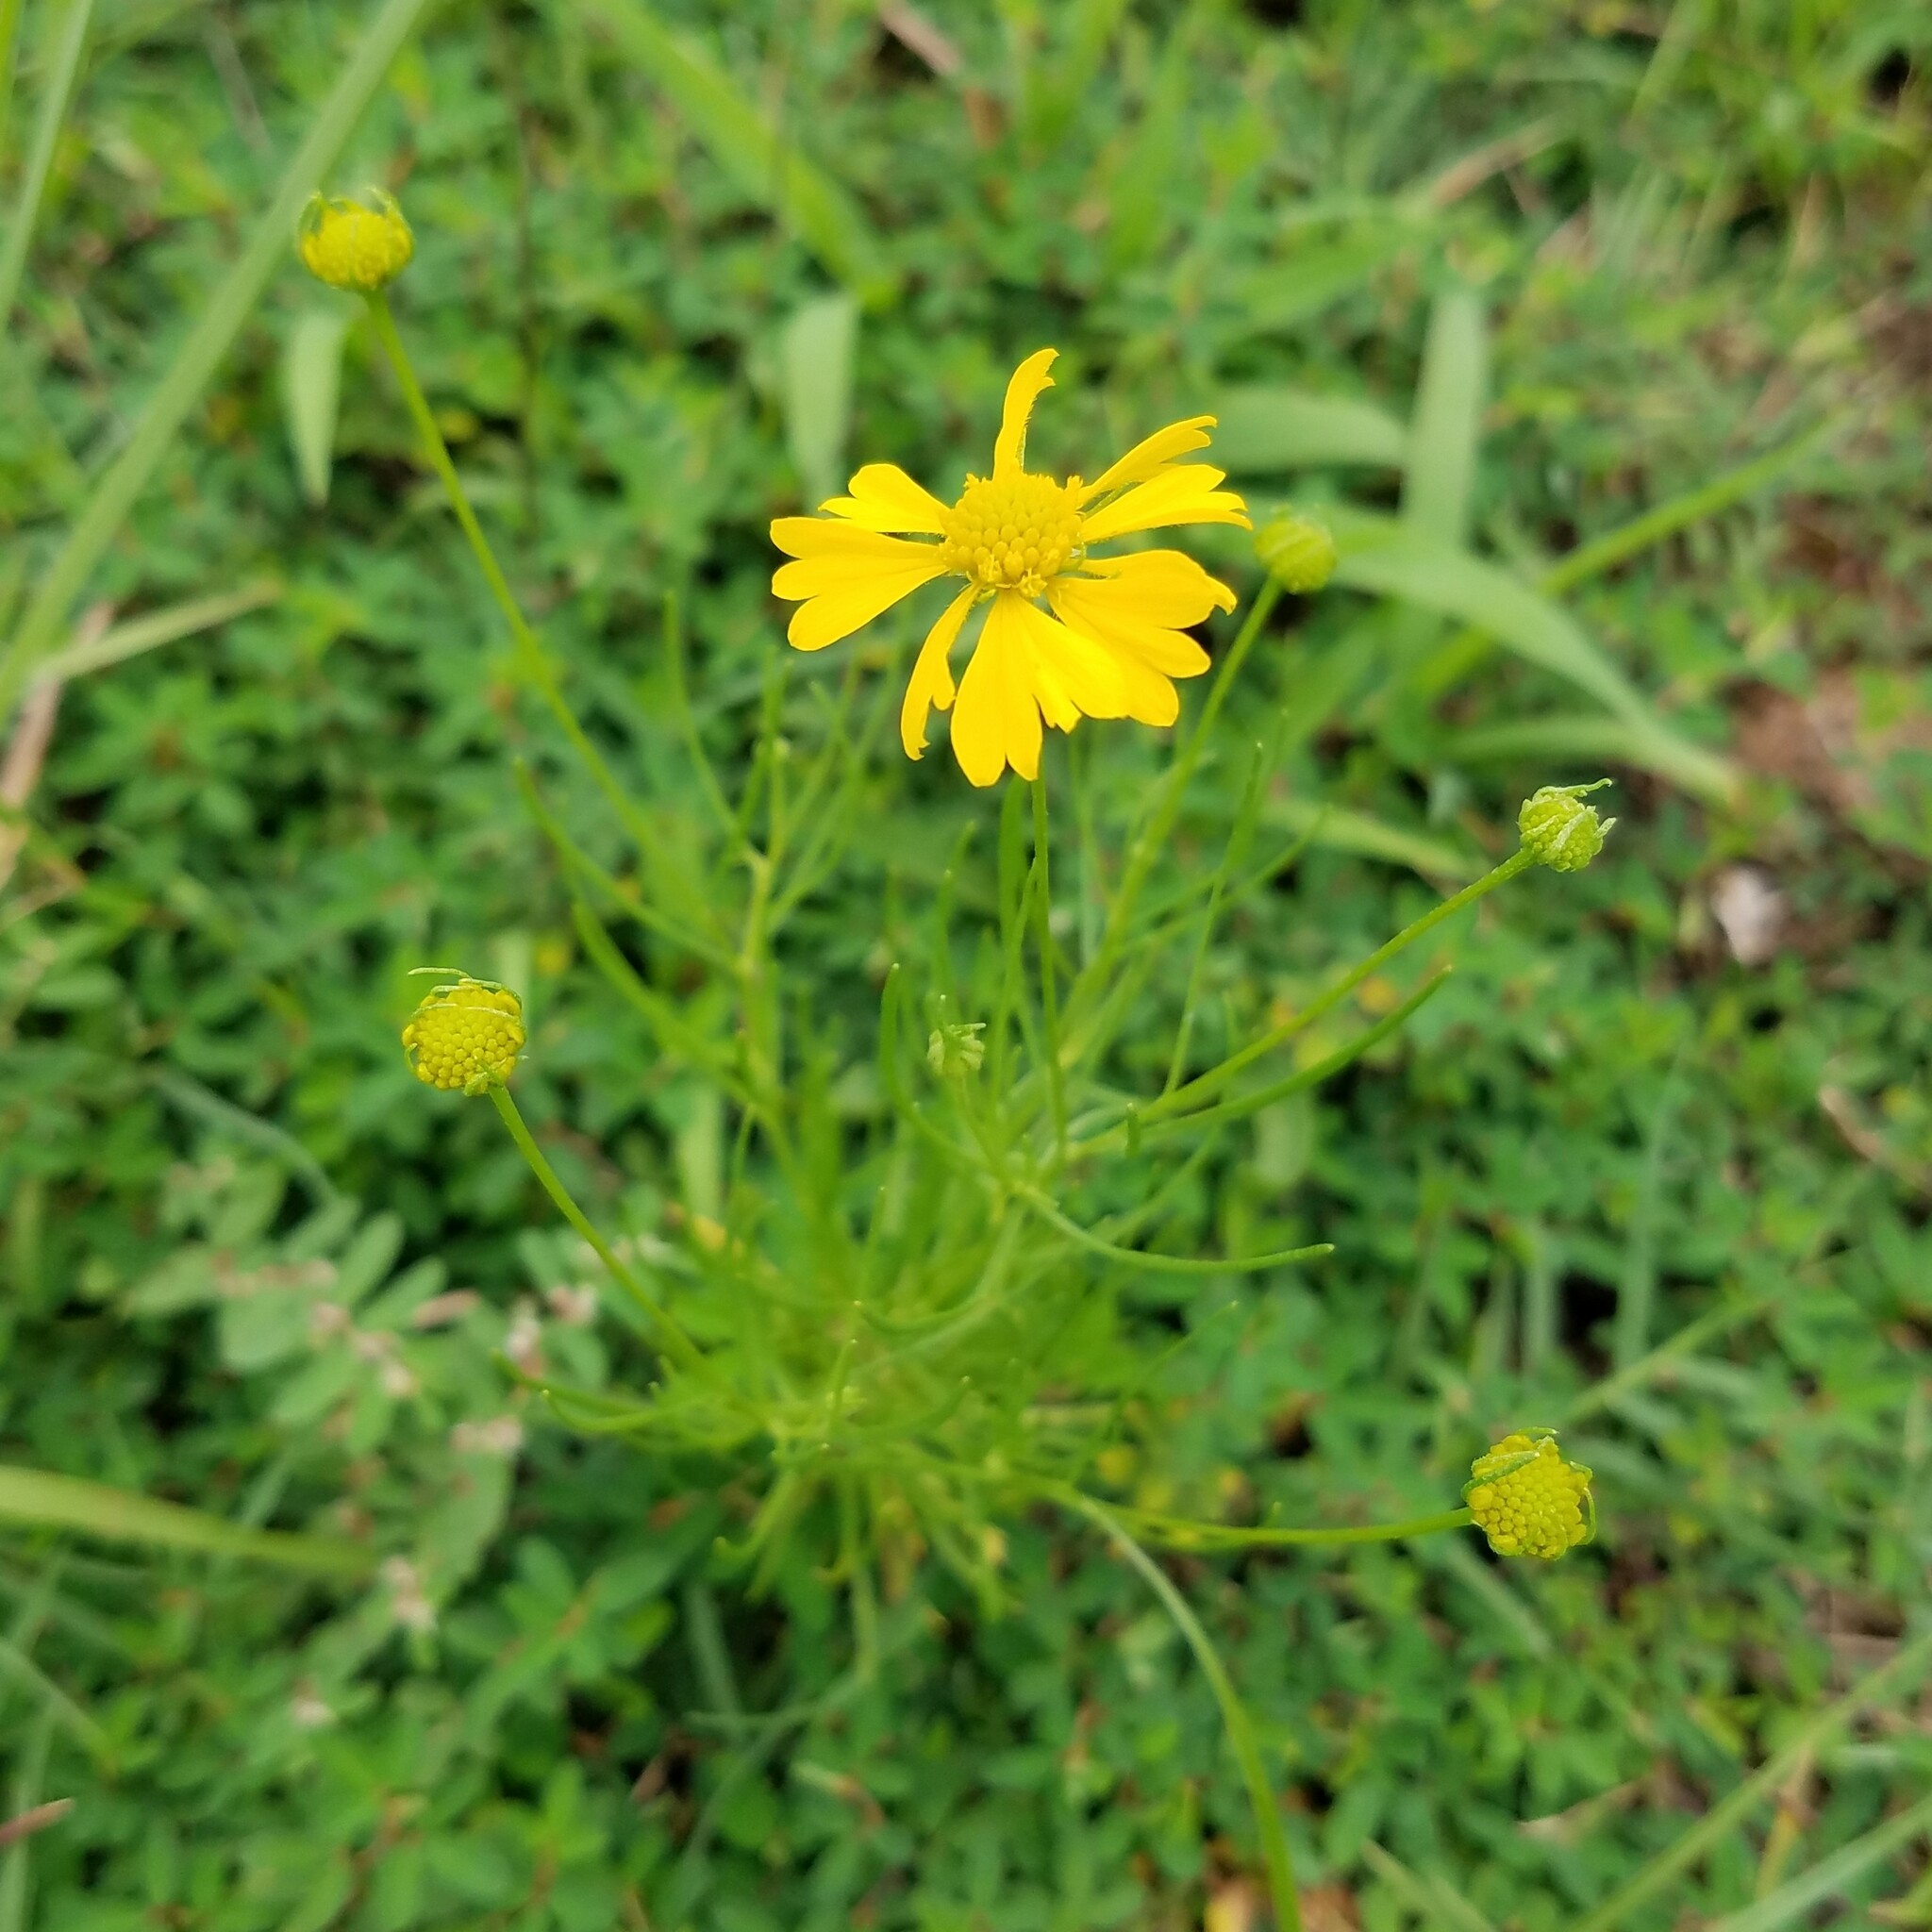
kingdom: Plantae
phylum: Tracheophyta
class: Magnoliopsida
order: Asterales
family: Asteraceae
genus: Helenium
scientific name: Helenium amarum
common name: Bitter sneezeweed
